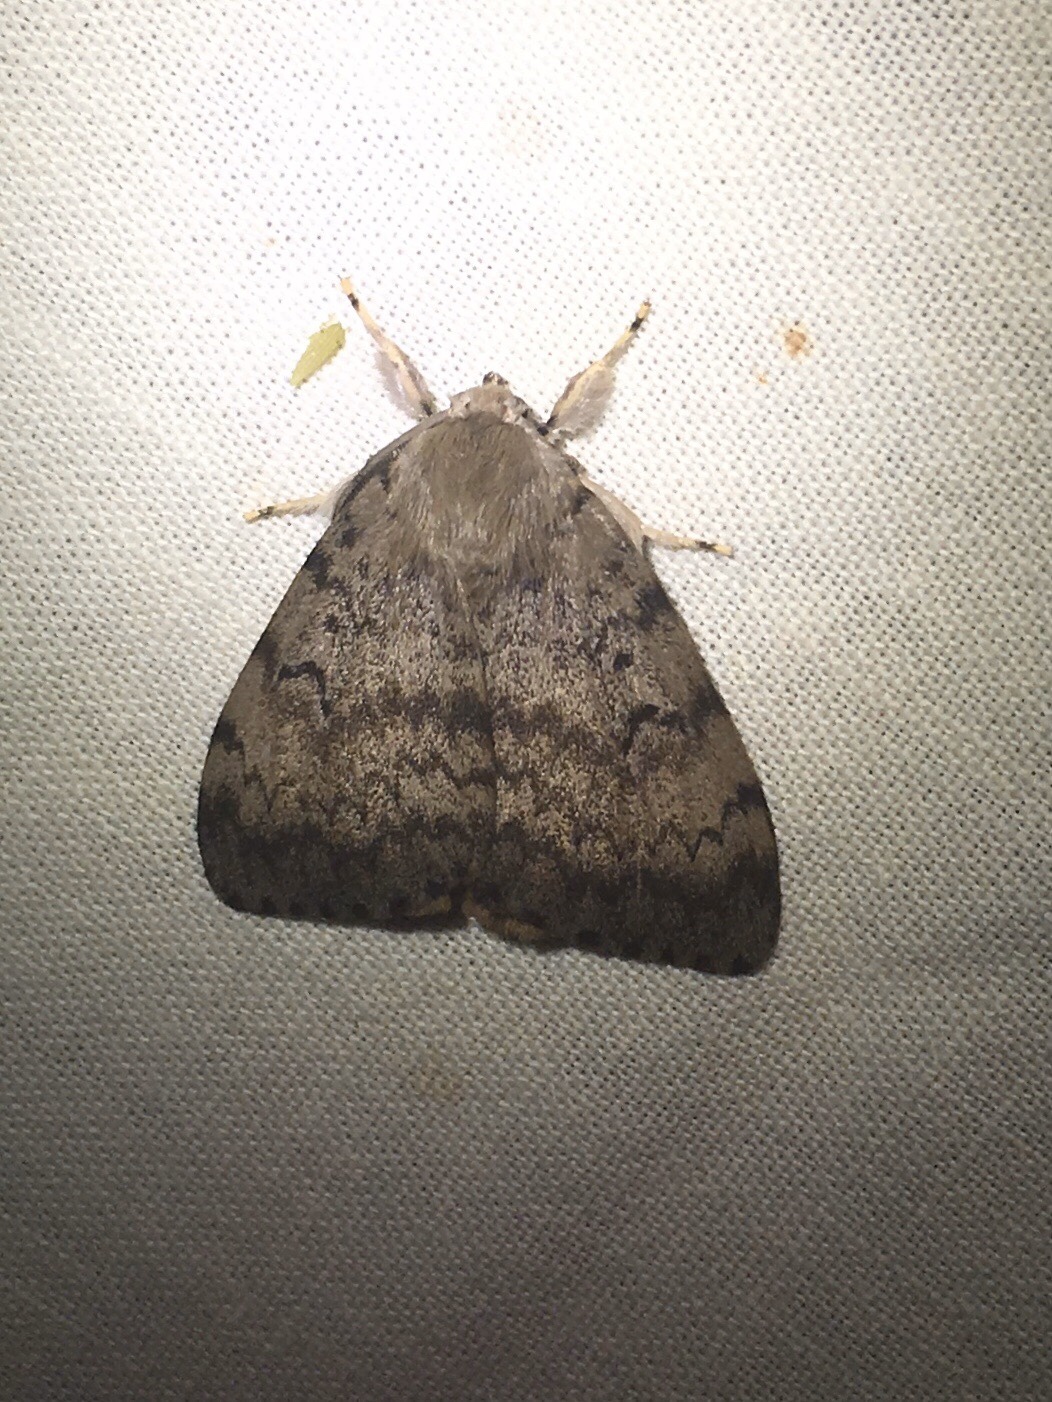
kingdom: Animalia
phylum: Arthropoda
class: Insecta
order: Lepidoptera
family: Erebidae
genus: Lymantria
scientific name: Lymantria dispar
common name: Gypsy moth
